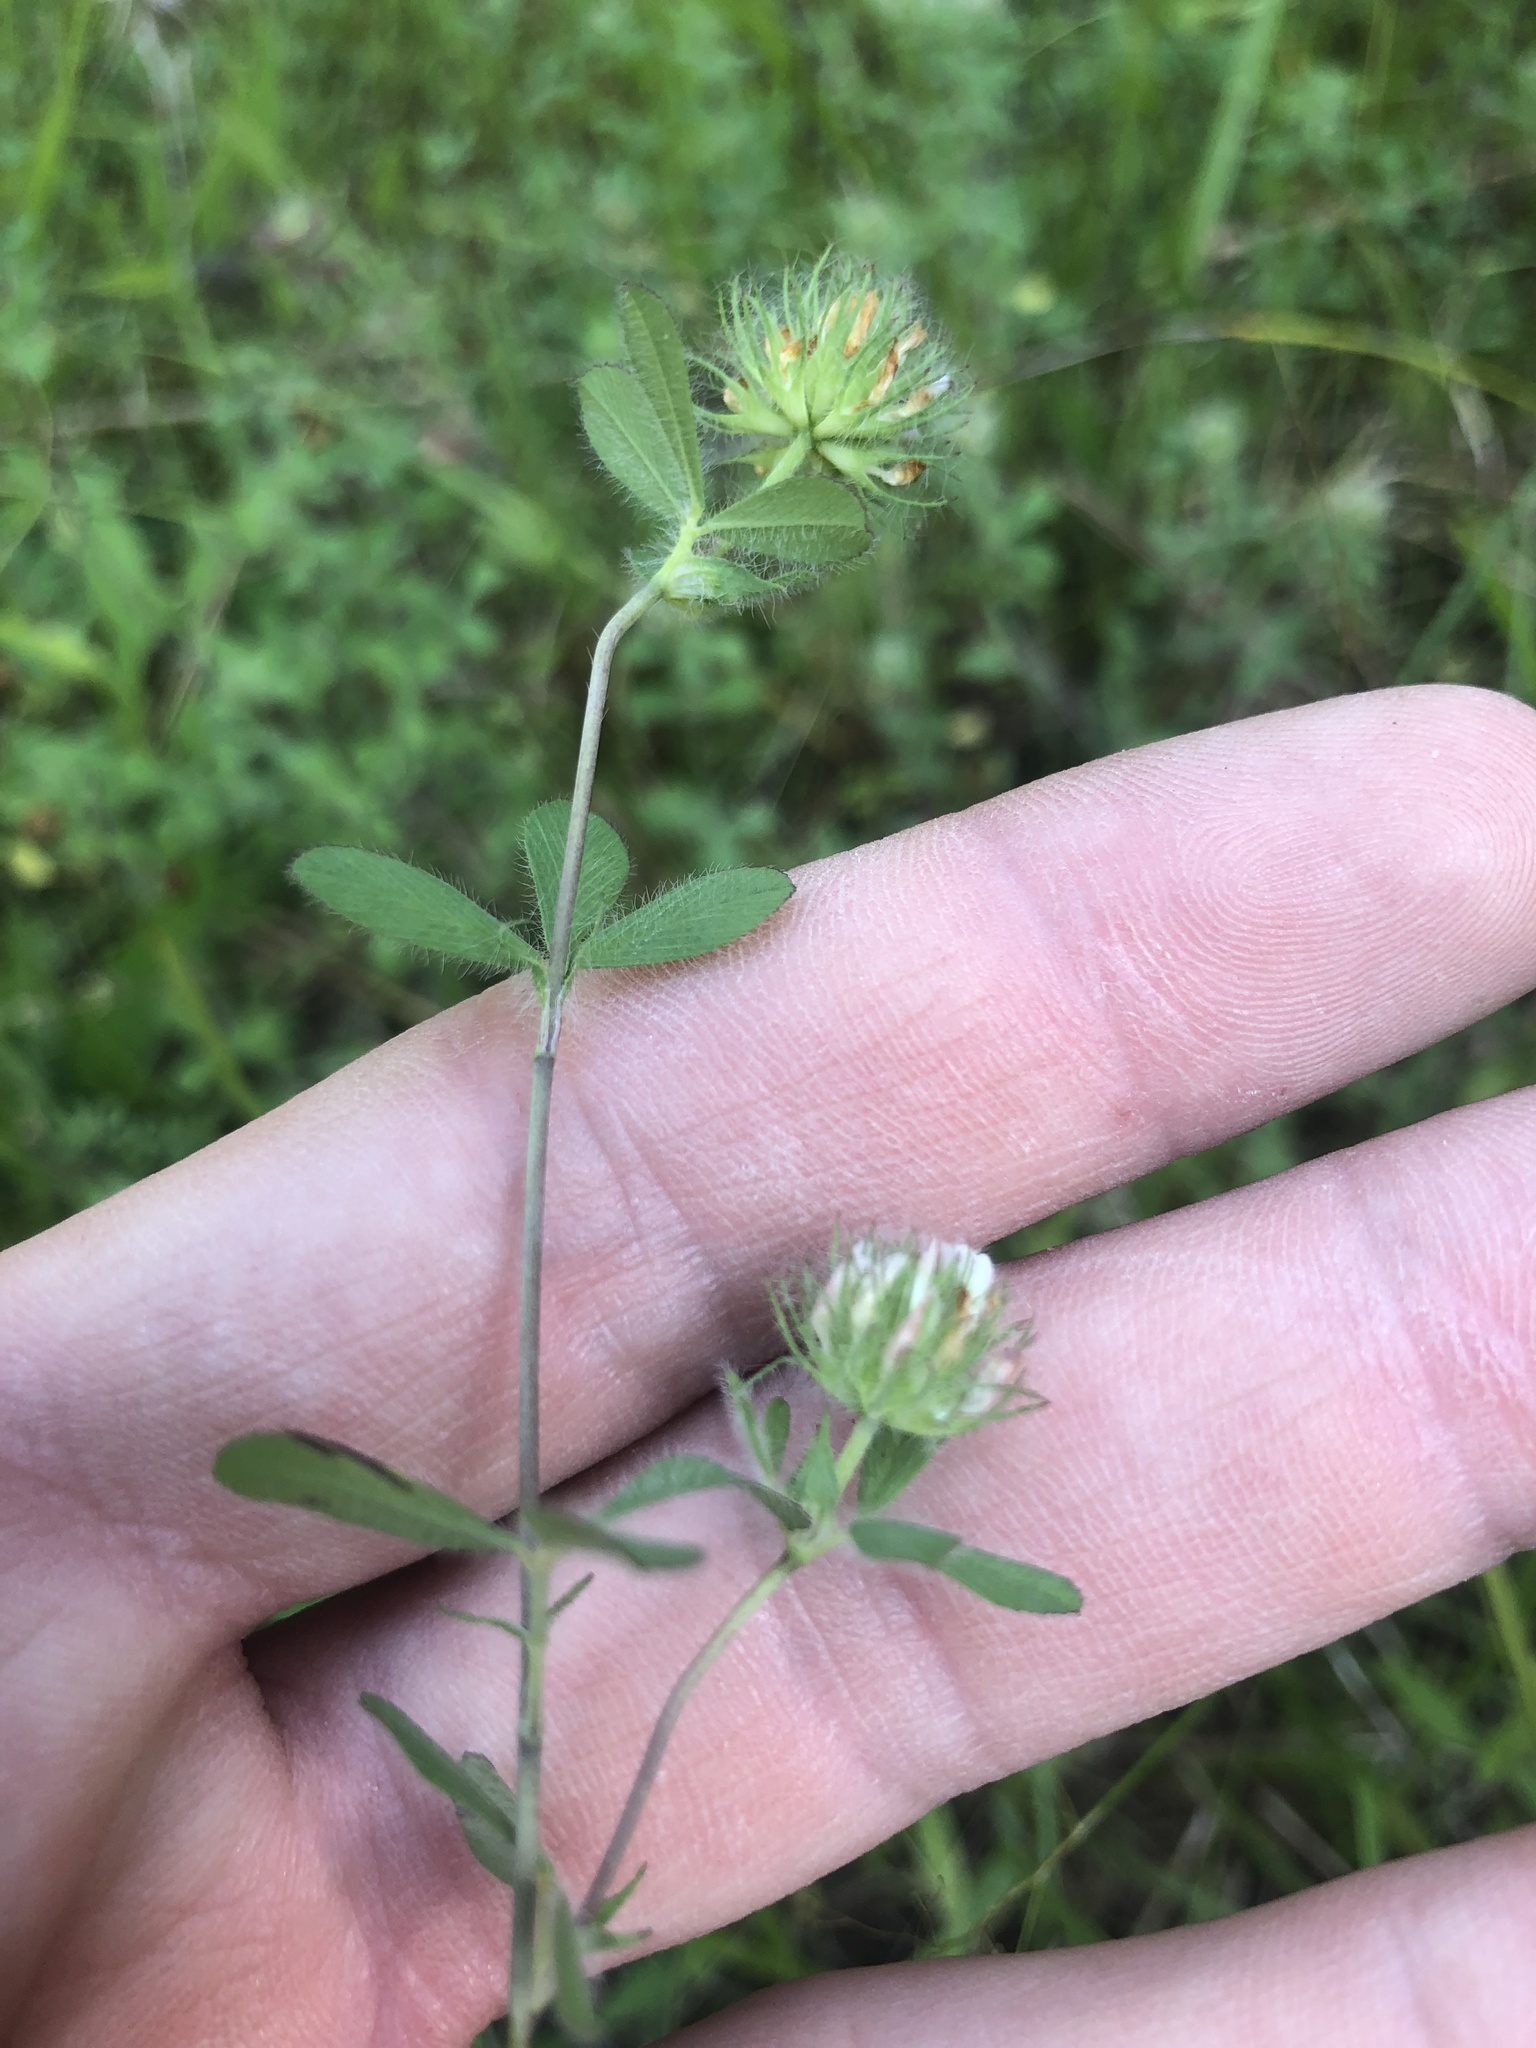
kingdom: Plantae
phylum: Tracheophyta
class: Magnoliopsida
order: Fabales
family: Fabaceae
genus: Trifolium
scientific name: Trifolium lappaceum
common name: Bur clover
